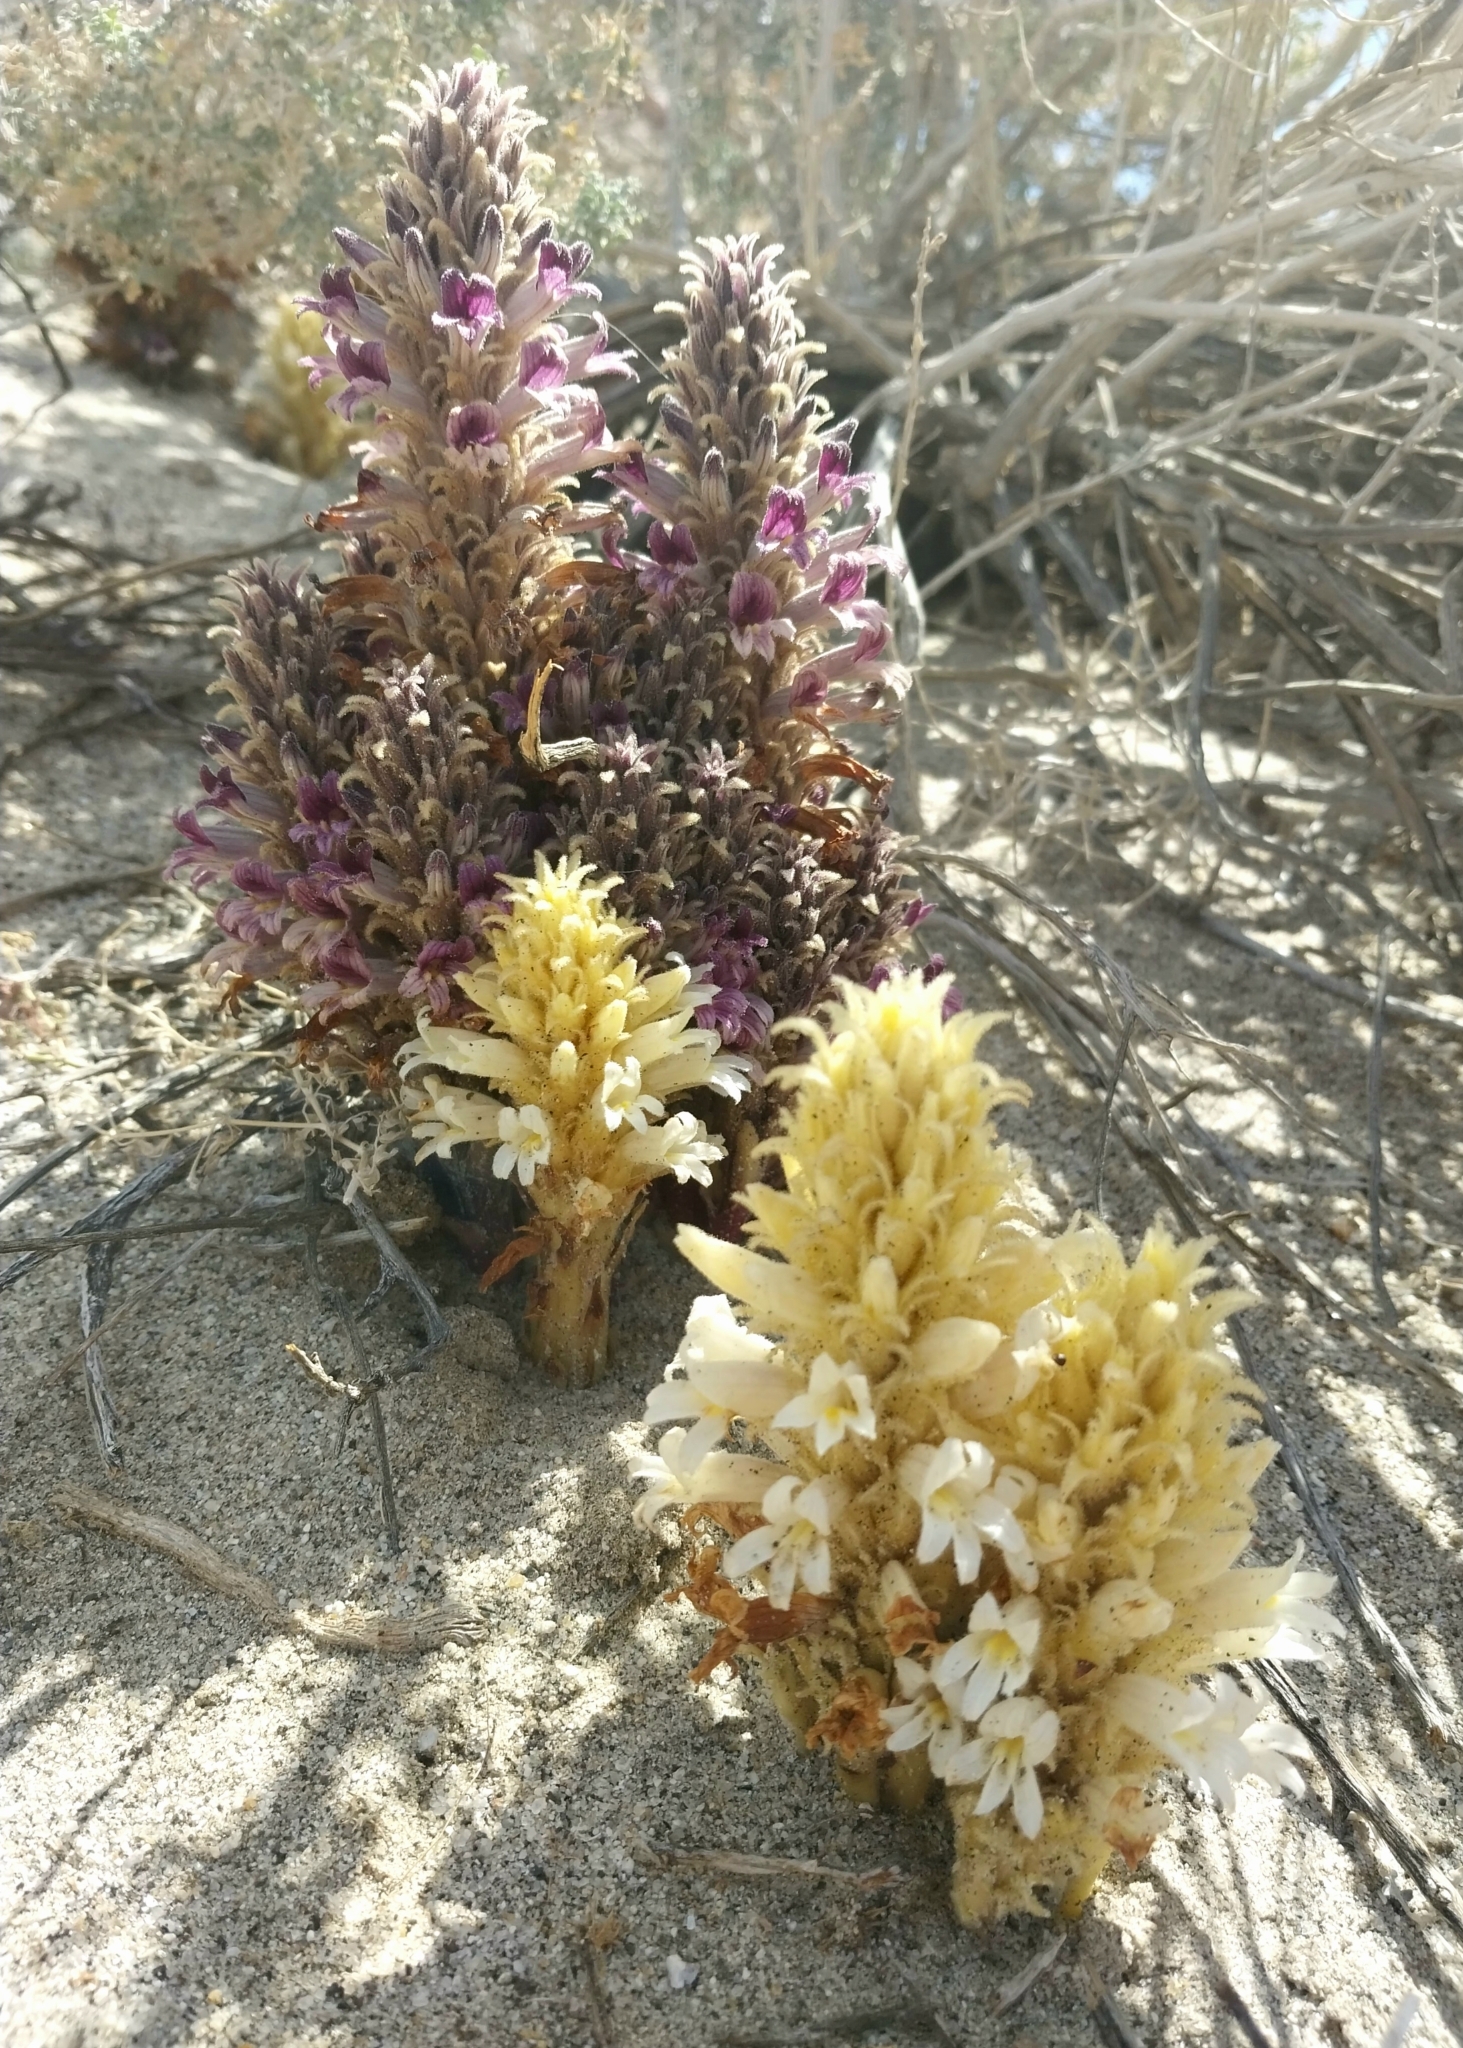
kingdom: Plantae
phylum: Tracheophyta
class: Magnoliopsida
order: Lamiales
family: Orobanchaceae
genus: Aphyllon
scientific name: Aphyllon cooperi
